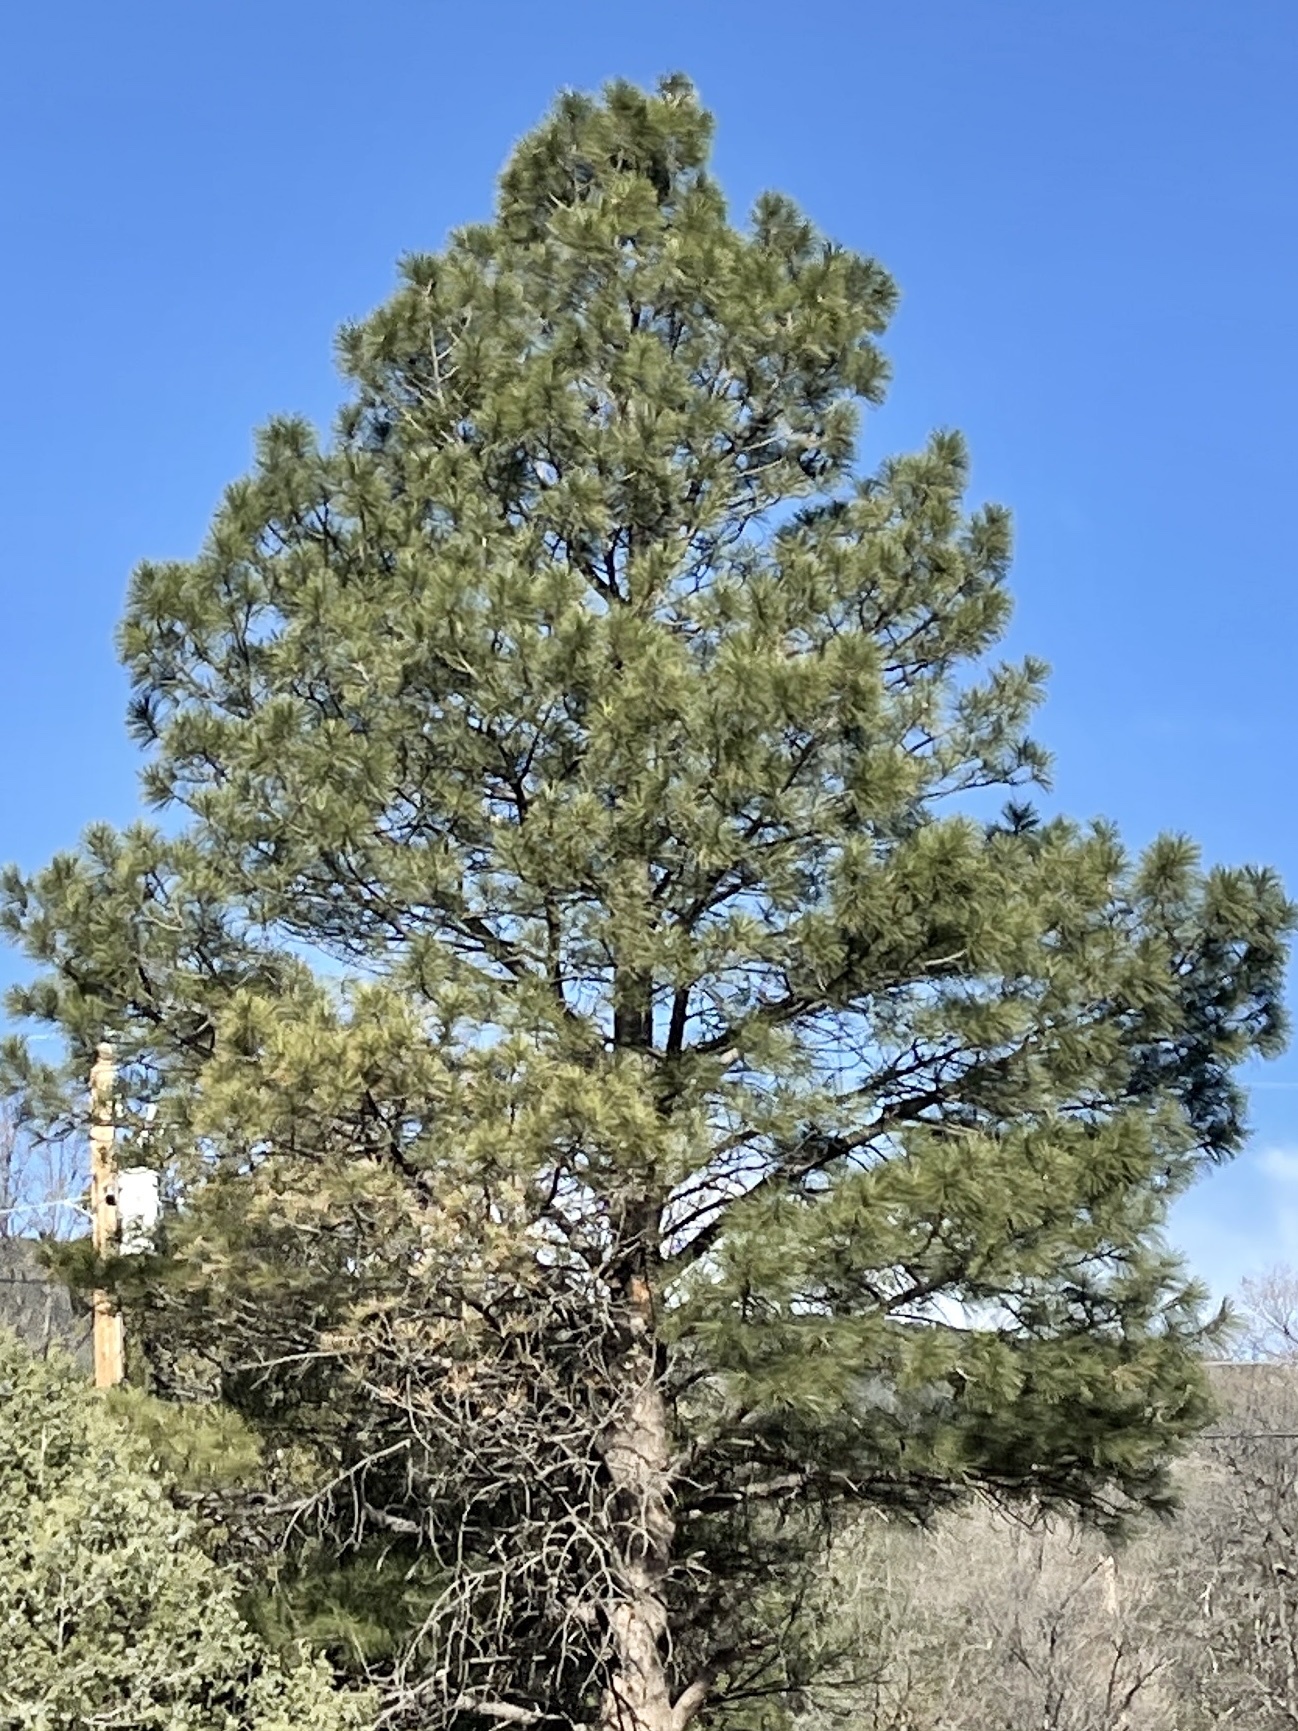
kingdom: Plantae
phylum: Tracheophyta
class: Pinopsida
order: Pinales
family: Pinaceae
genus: Pinus
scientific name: Pinus ponderosa
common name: Western yellow-pine
